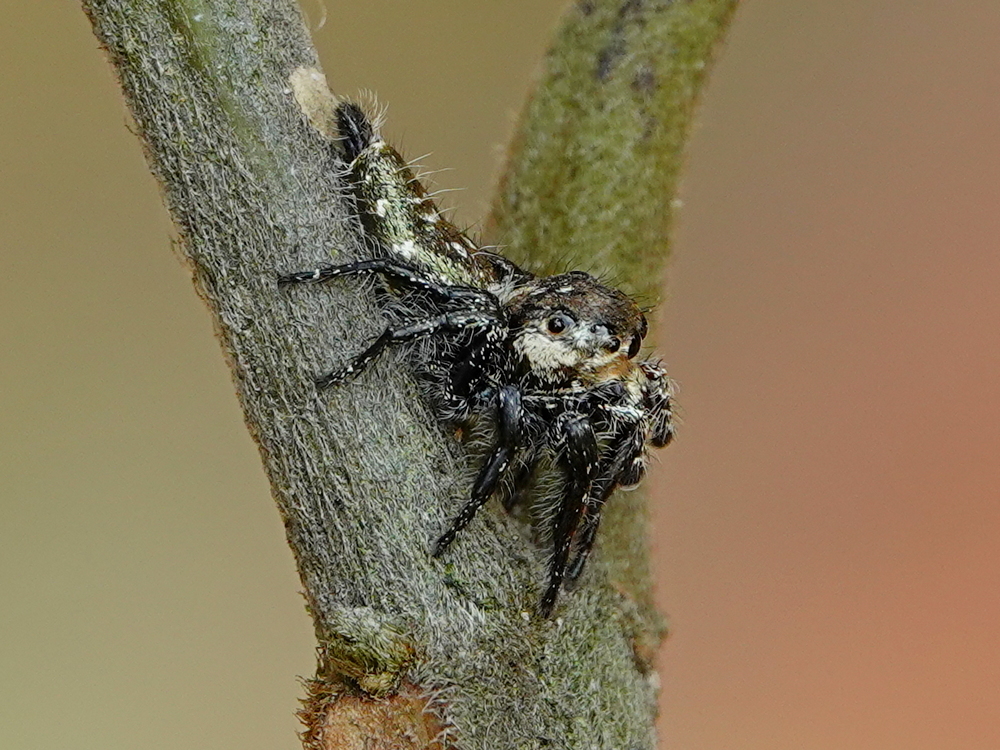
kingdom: Animalia
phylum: Arthropoda
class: Arachnida
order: Araneae
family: Salticidae
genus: Hyllus
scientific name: Hyllus semicupreus
